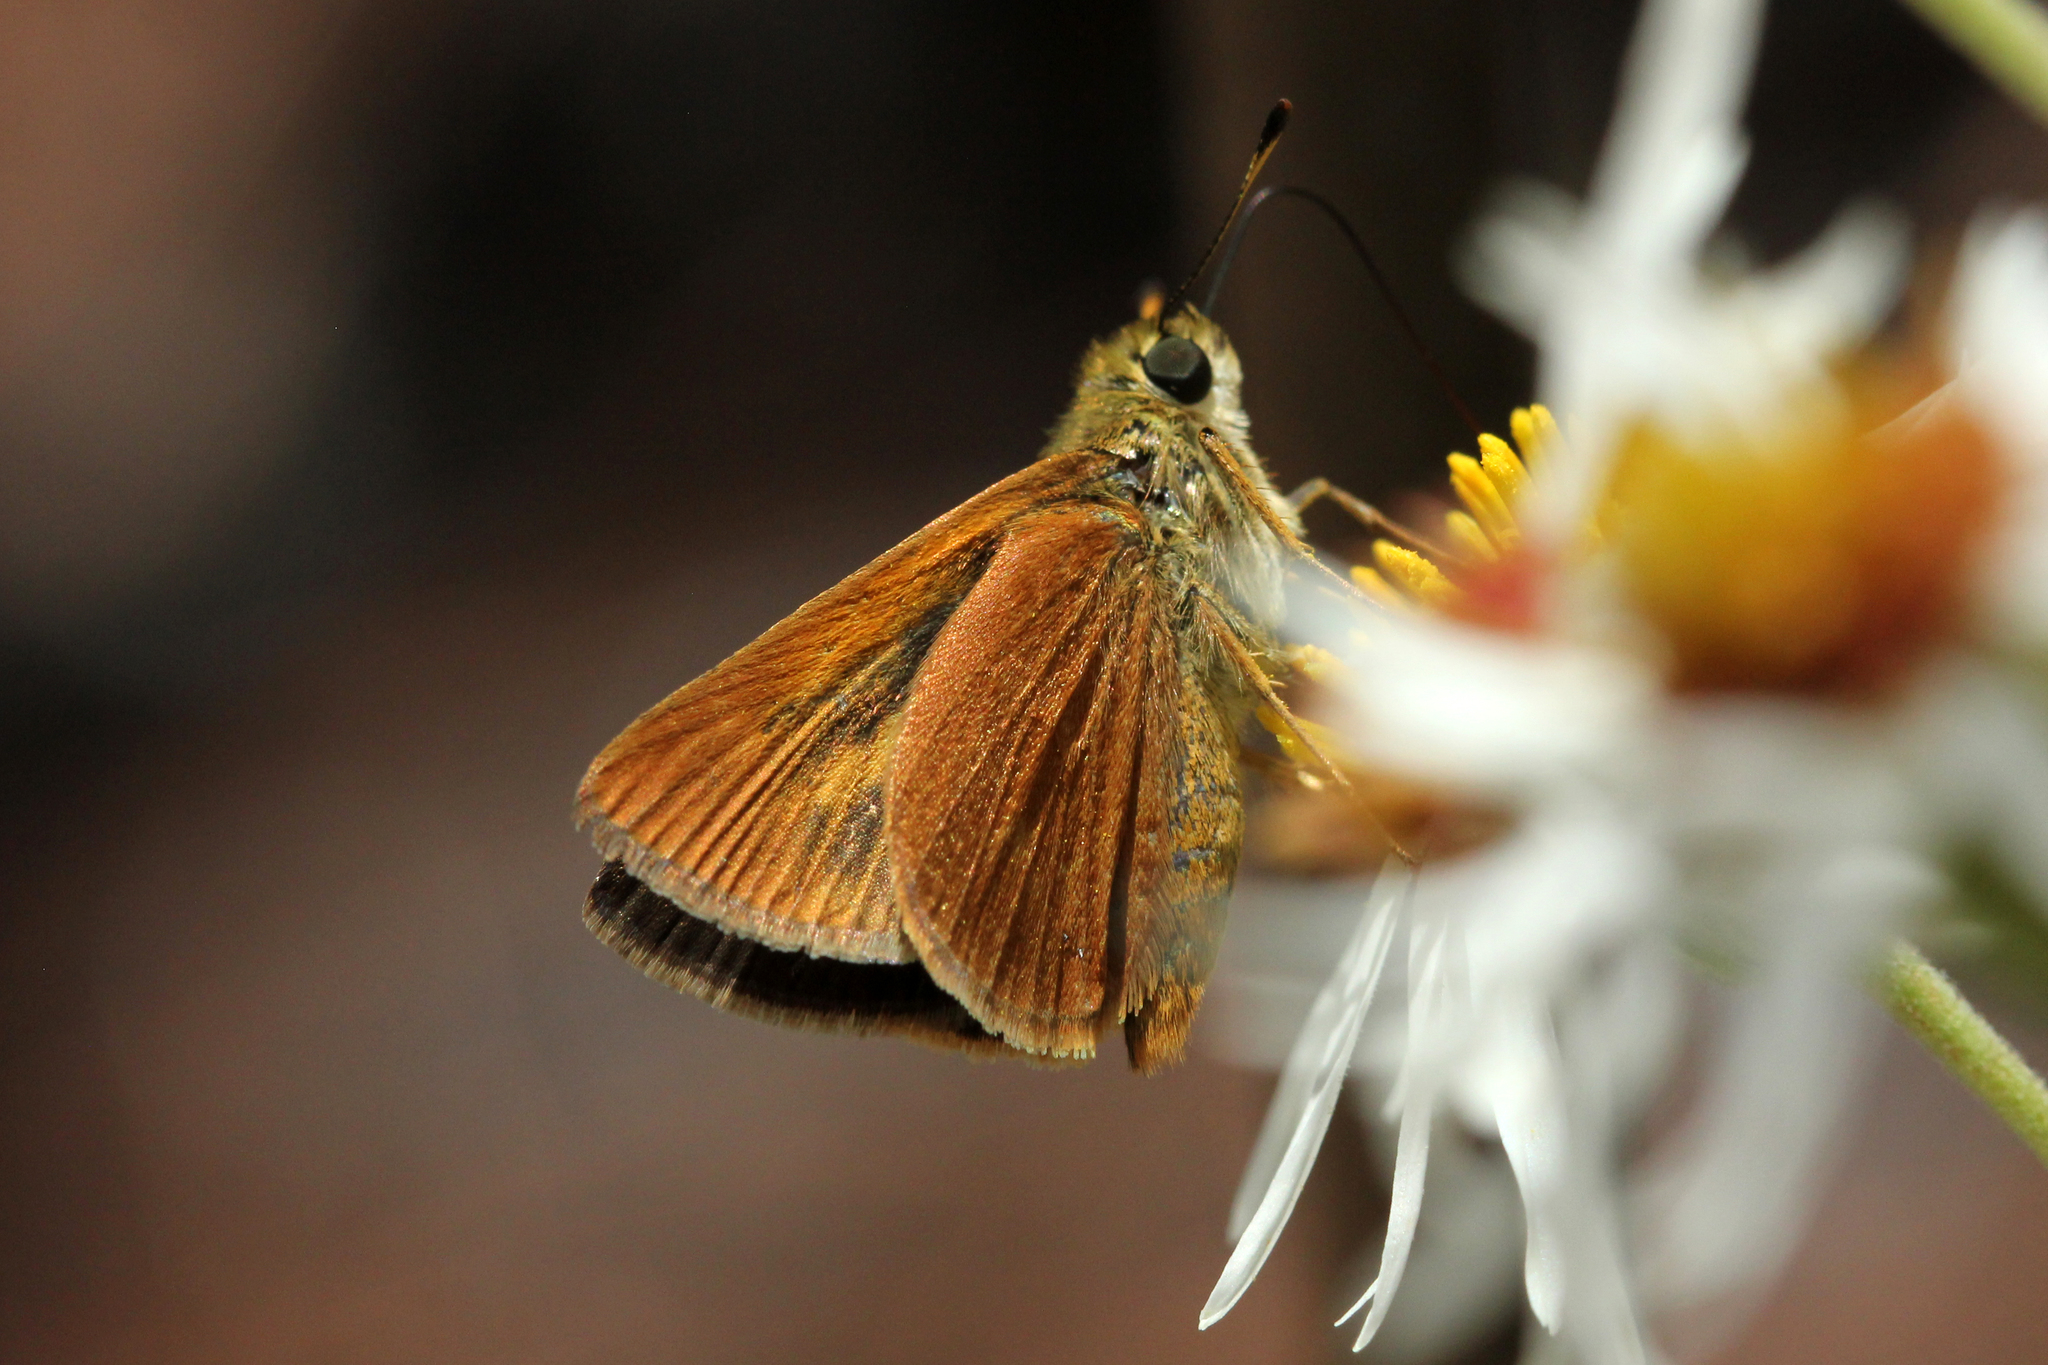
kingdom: Animalia
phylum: Arthropoda
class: Insecta
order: Lepidoptera
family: Hesperiidae
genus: Polites
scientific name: Polites otho
